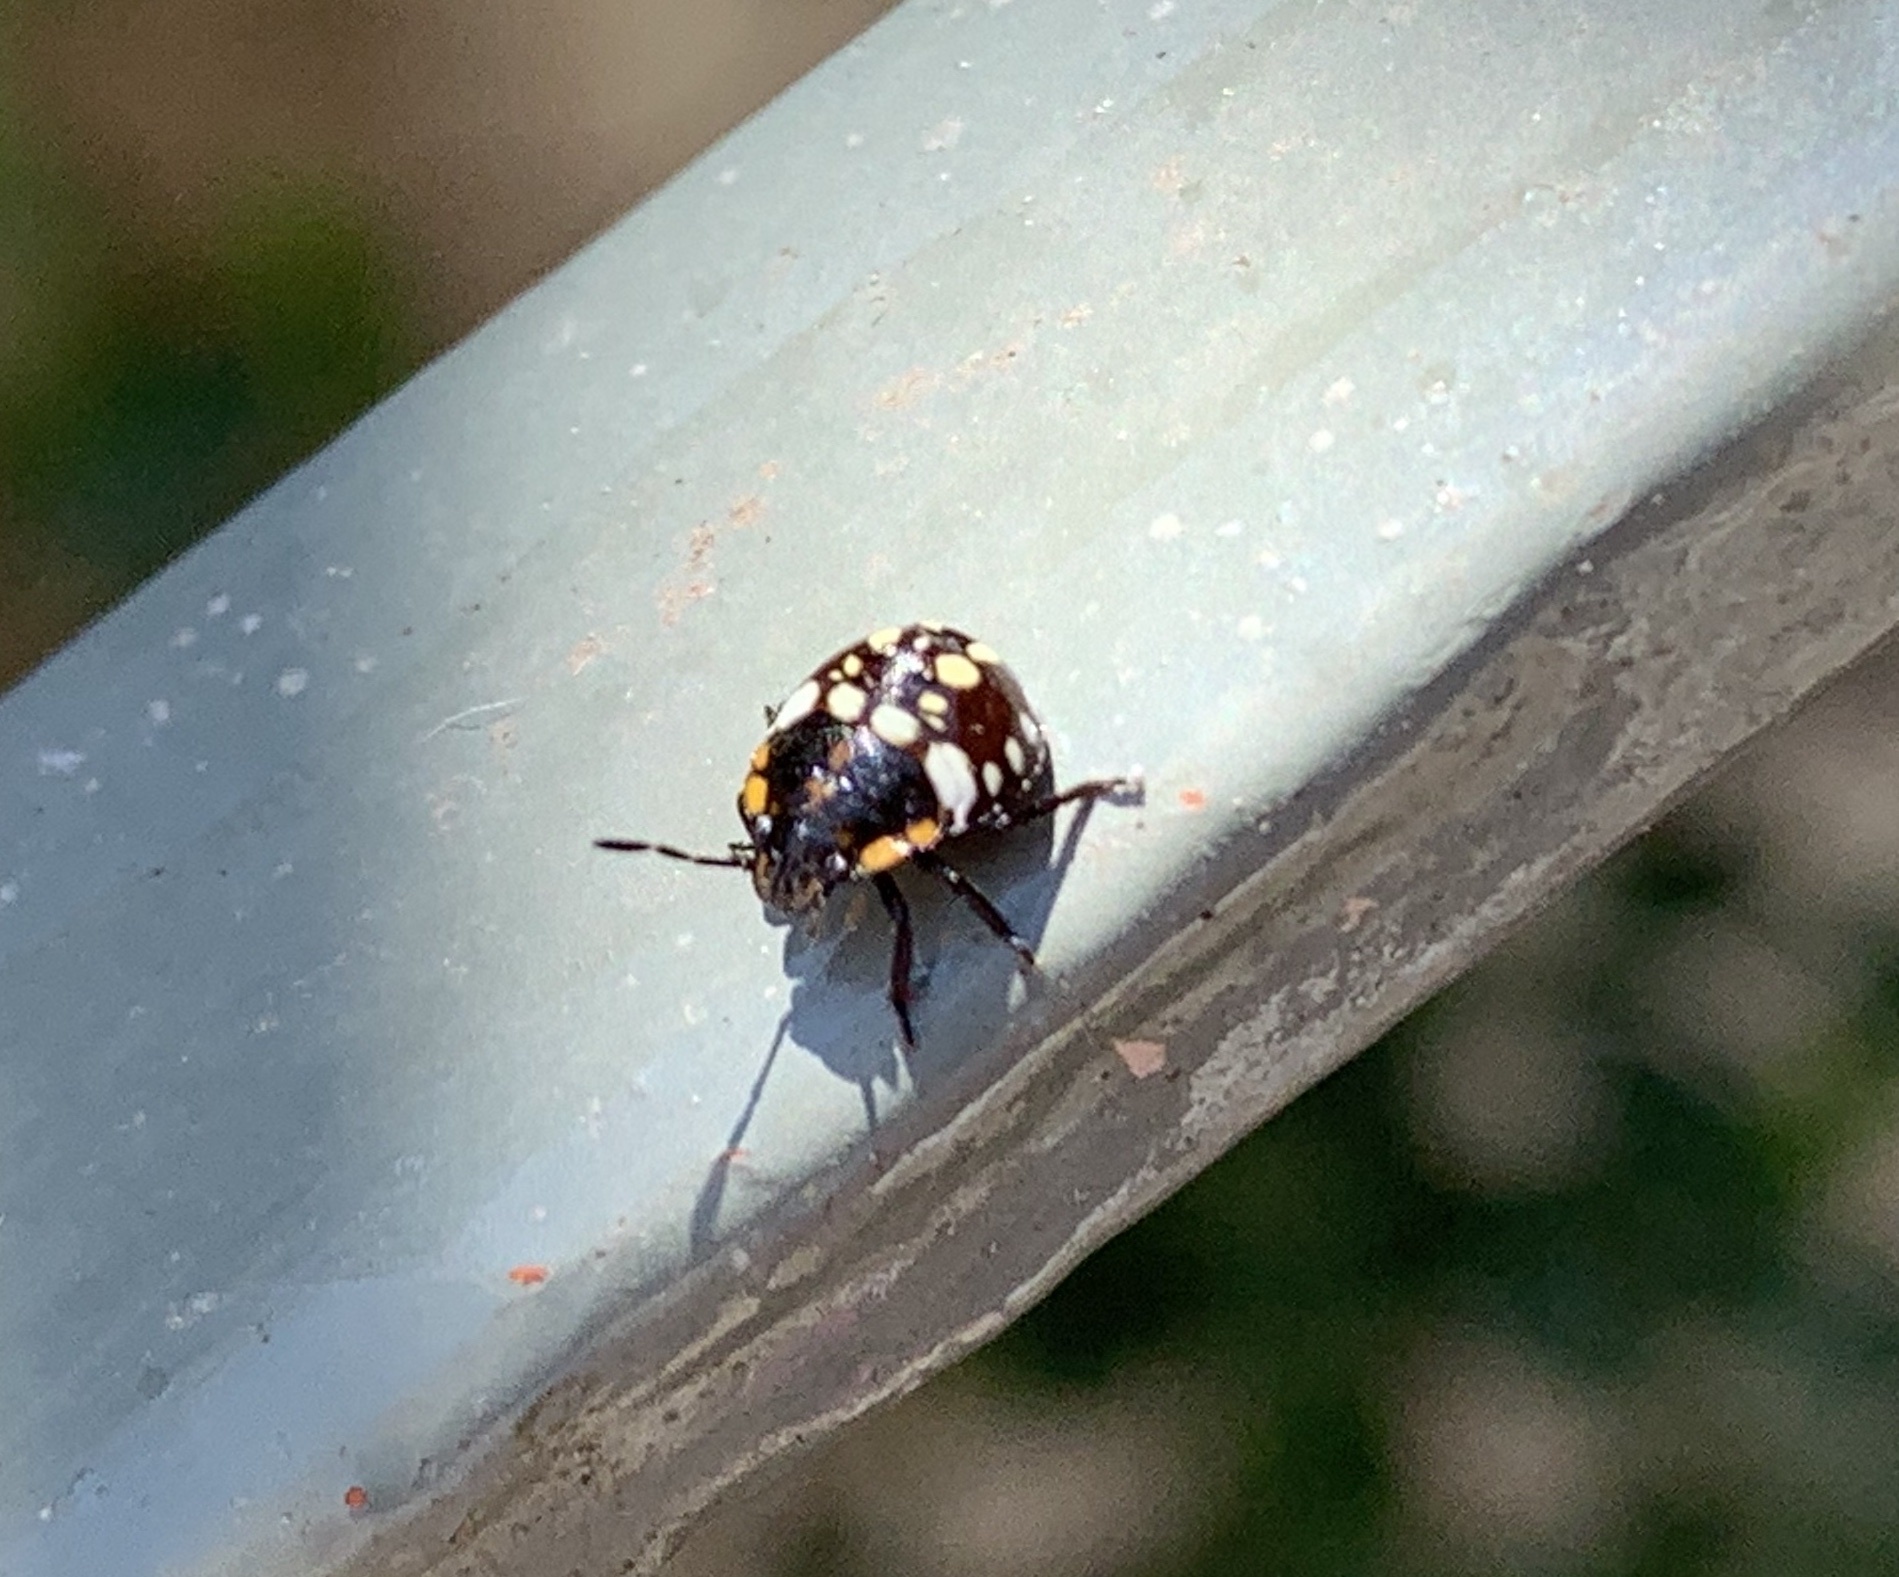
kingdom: Animalia
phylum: Arthropoda
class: Insecta
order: Hemiptera
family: Pentatomidae
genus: Nezara
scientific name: Nezara viridula
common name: Southern green stink bug
